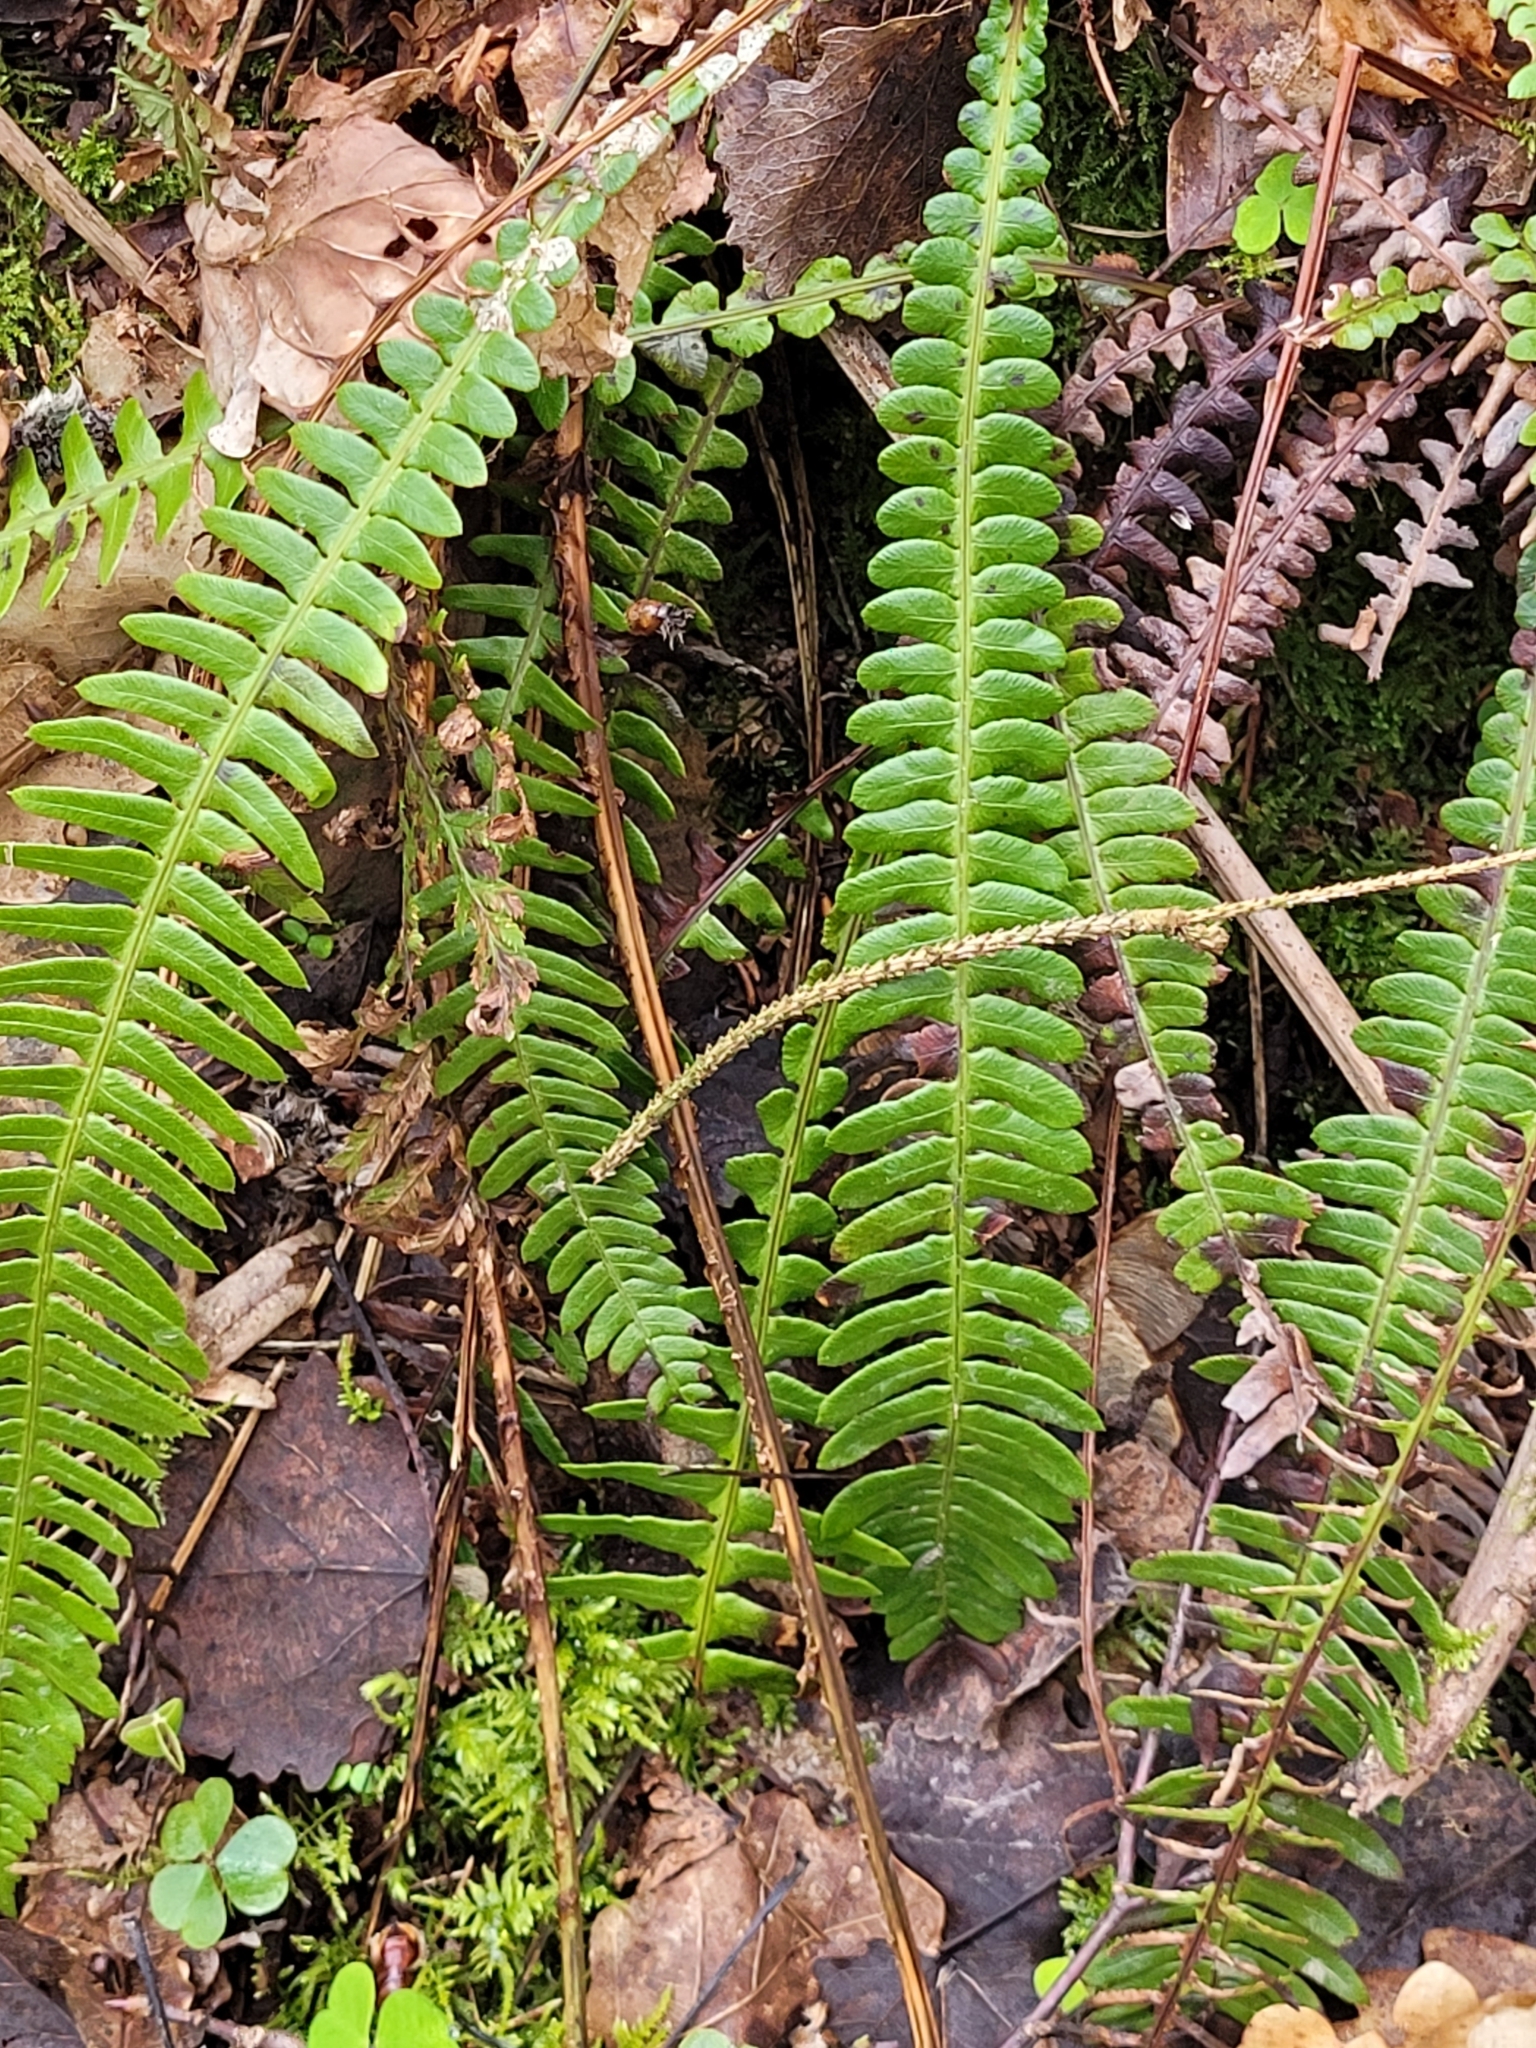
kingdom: Plantae
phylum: Tracheophyta
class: Polypodiopsida
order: Polypodiales
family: Blechnaceae
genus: Struthiopteris
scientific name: Struthiopteris spicant
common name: Deer fern
